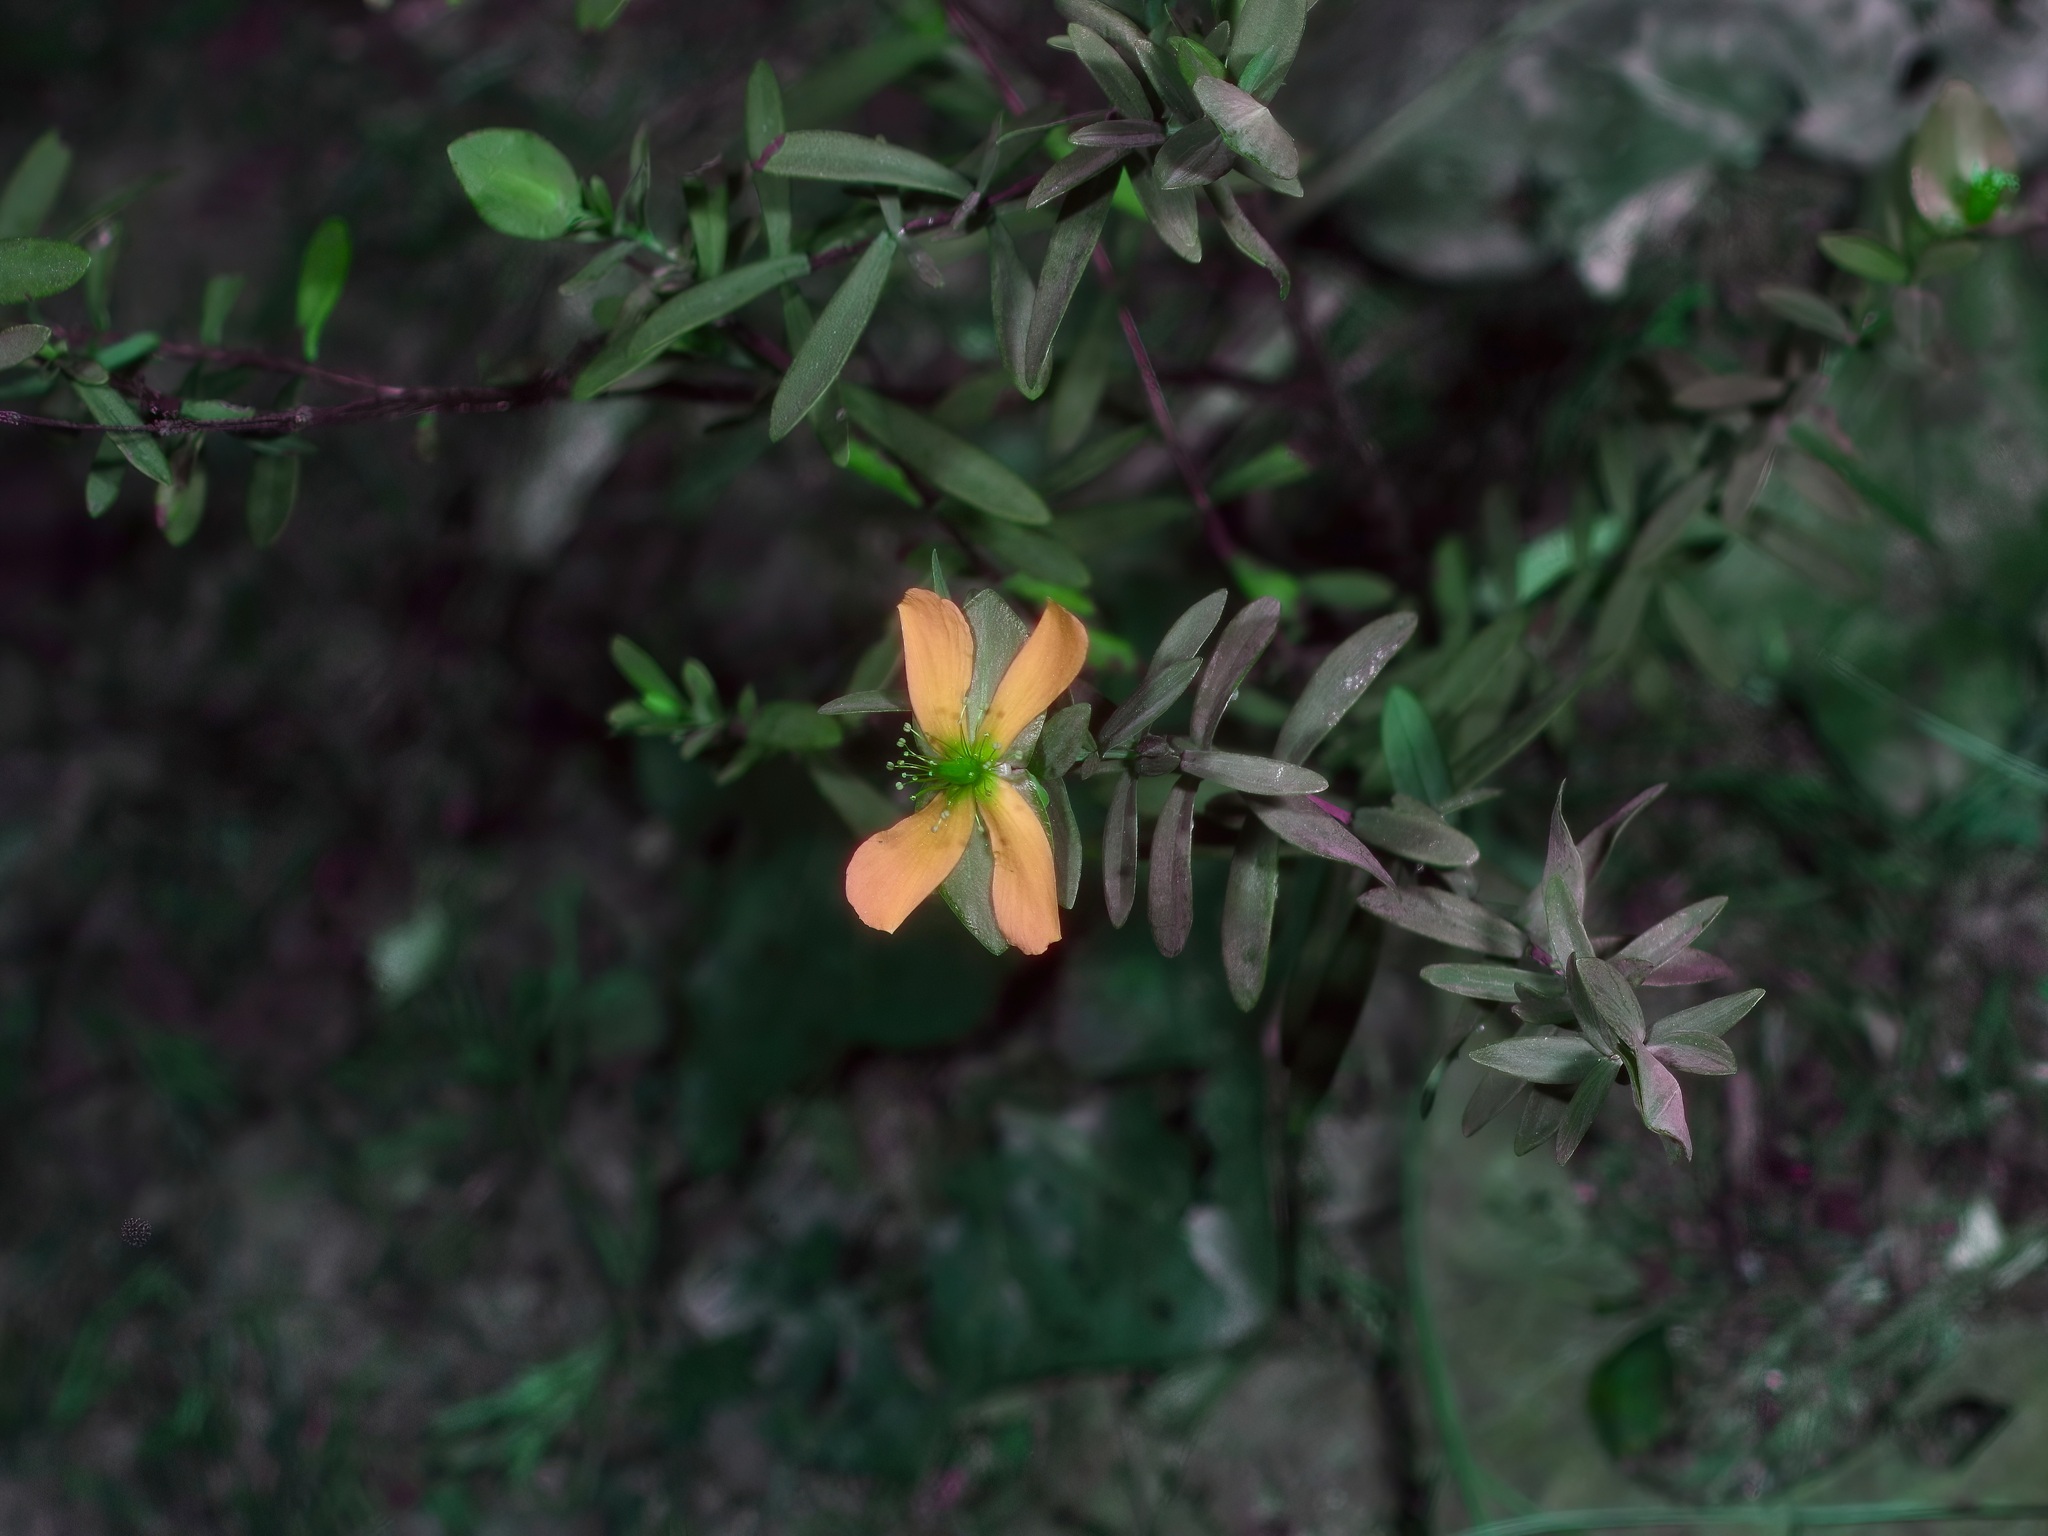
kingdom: Plantae
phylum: Tracheophyta
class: Magnoliopsida
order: Malpighiales
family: Hypericaceae
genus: Hypericum
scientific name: Hypericum hypericoides
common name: St. andrew's cross
